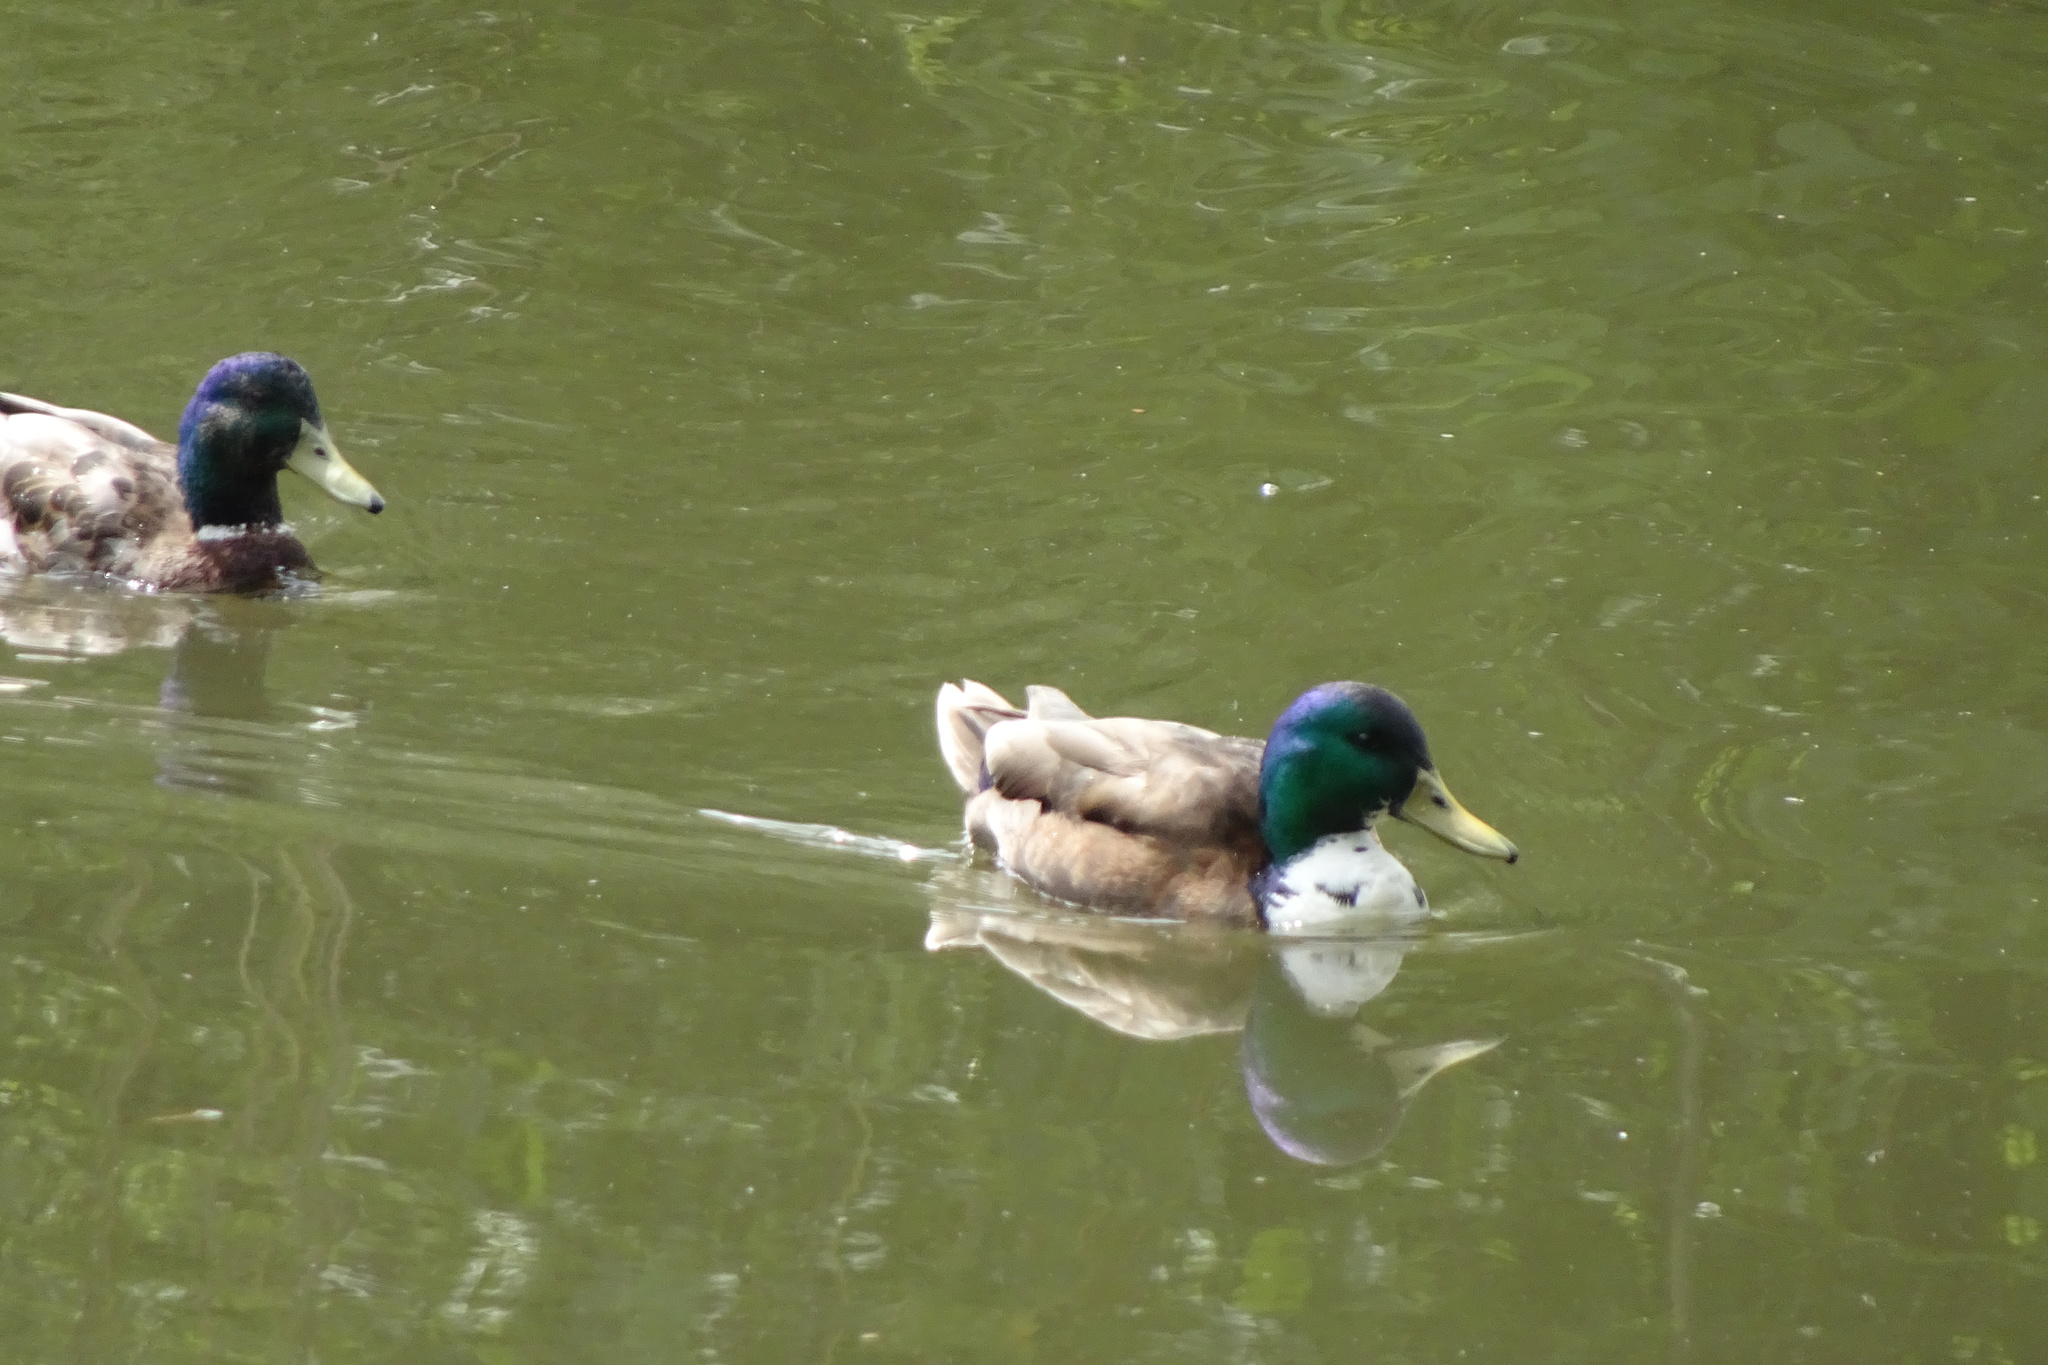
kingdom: Animalia
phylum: Chordata
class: Aves
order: Anseriformes
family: Anatidae
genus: Anas
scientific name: Anas platyrhynchos
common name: Mallard
